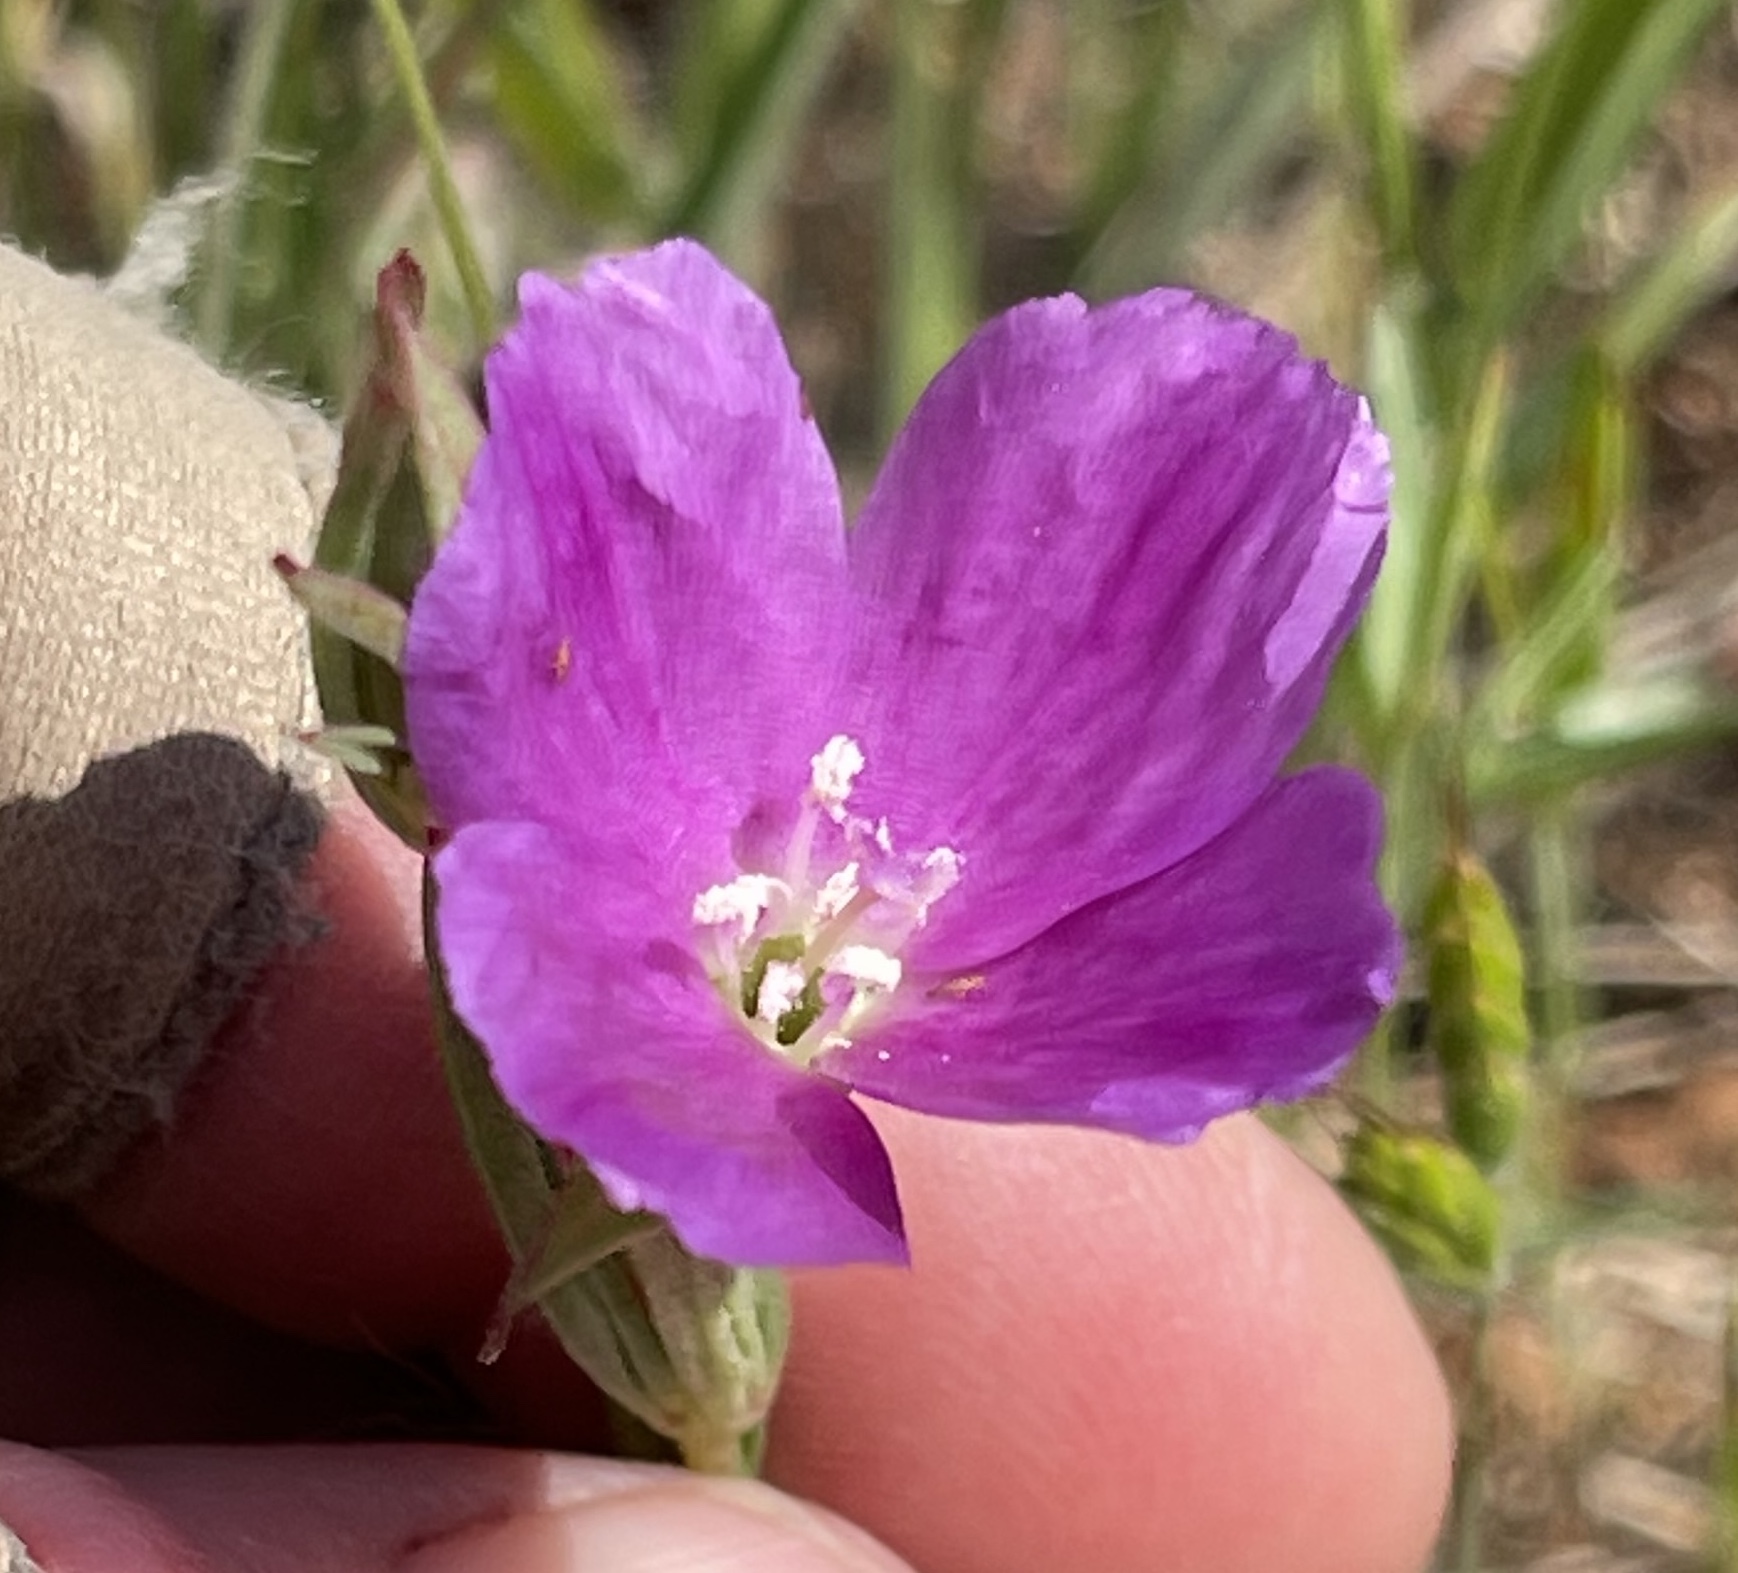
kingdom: Plantae
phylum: Tracheophyta
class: Magnoliopsida
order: Myrtales
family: Onagraceae
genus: Clarkia
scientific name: Clarkia purpurea
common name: Purple clarkia
